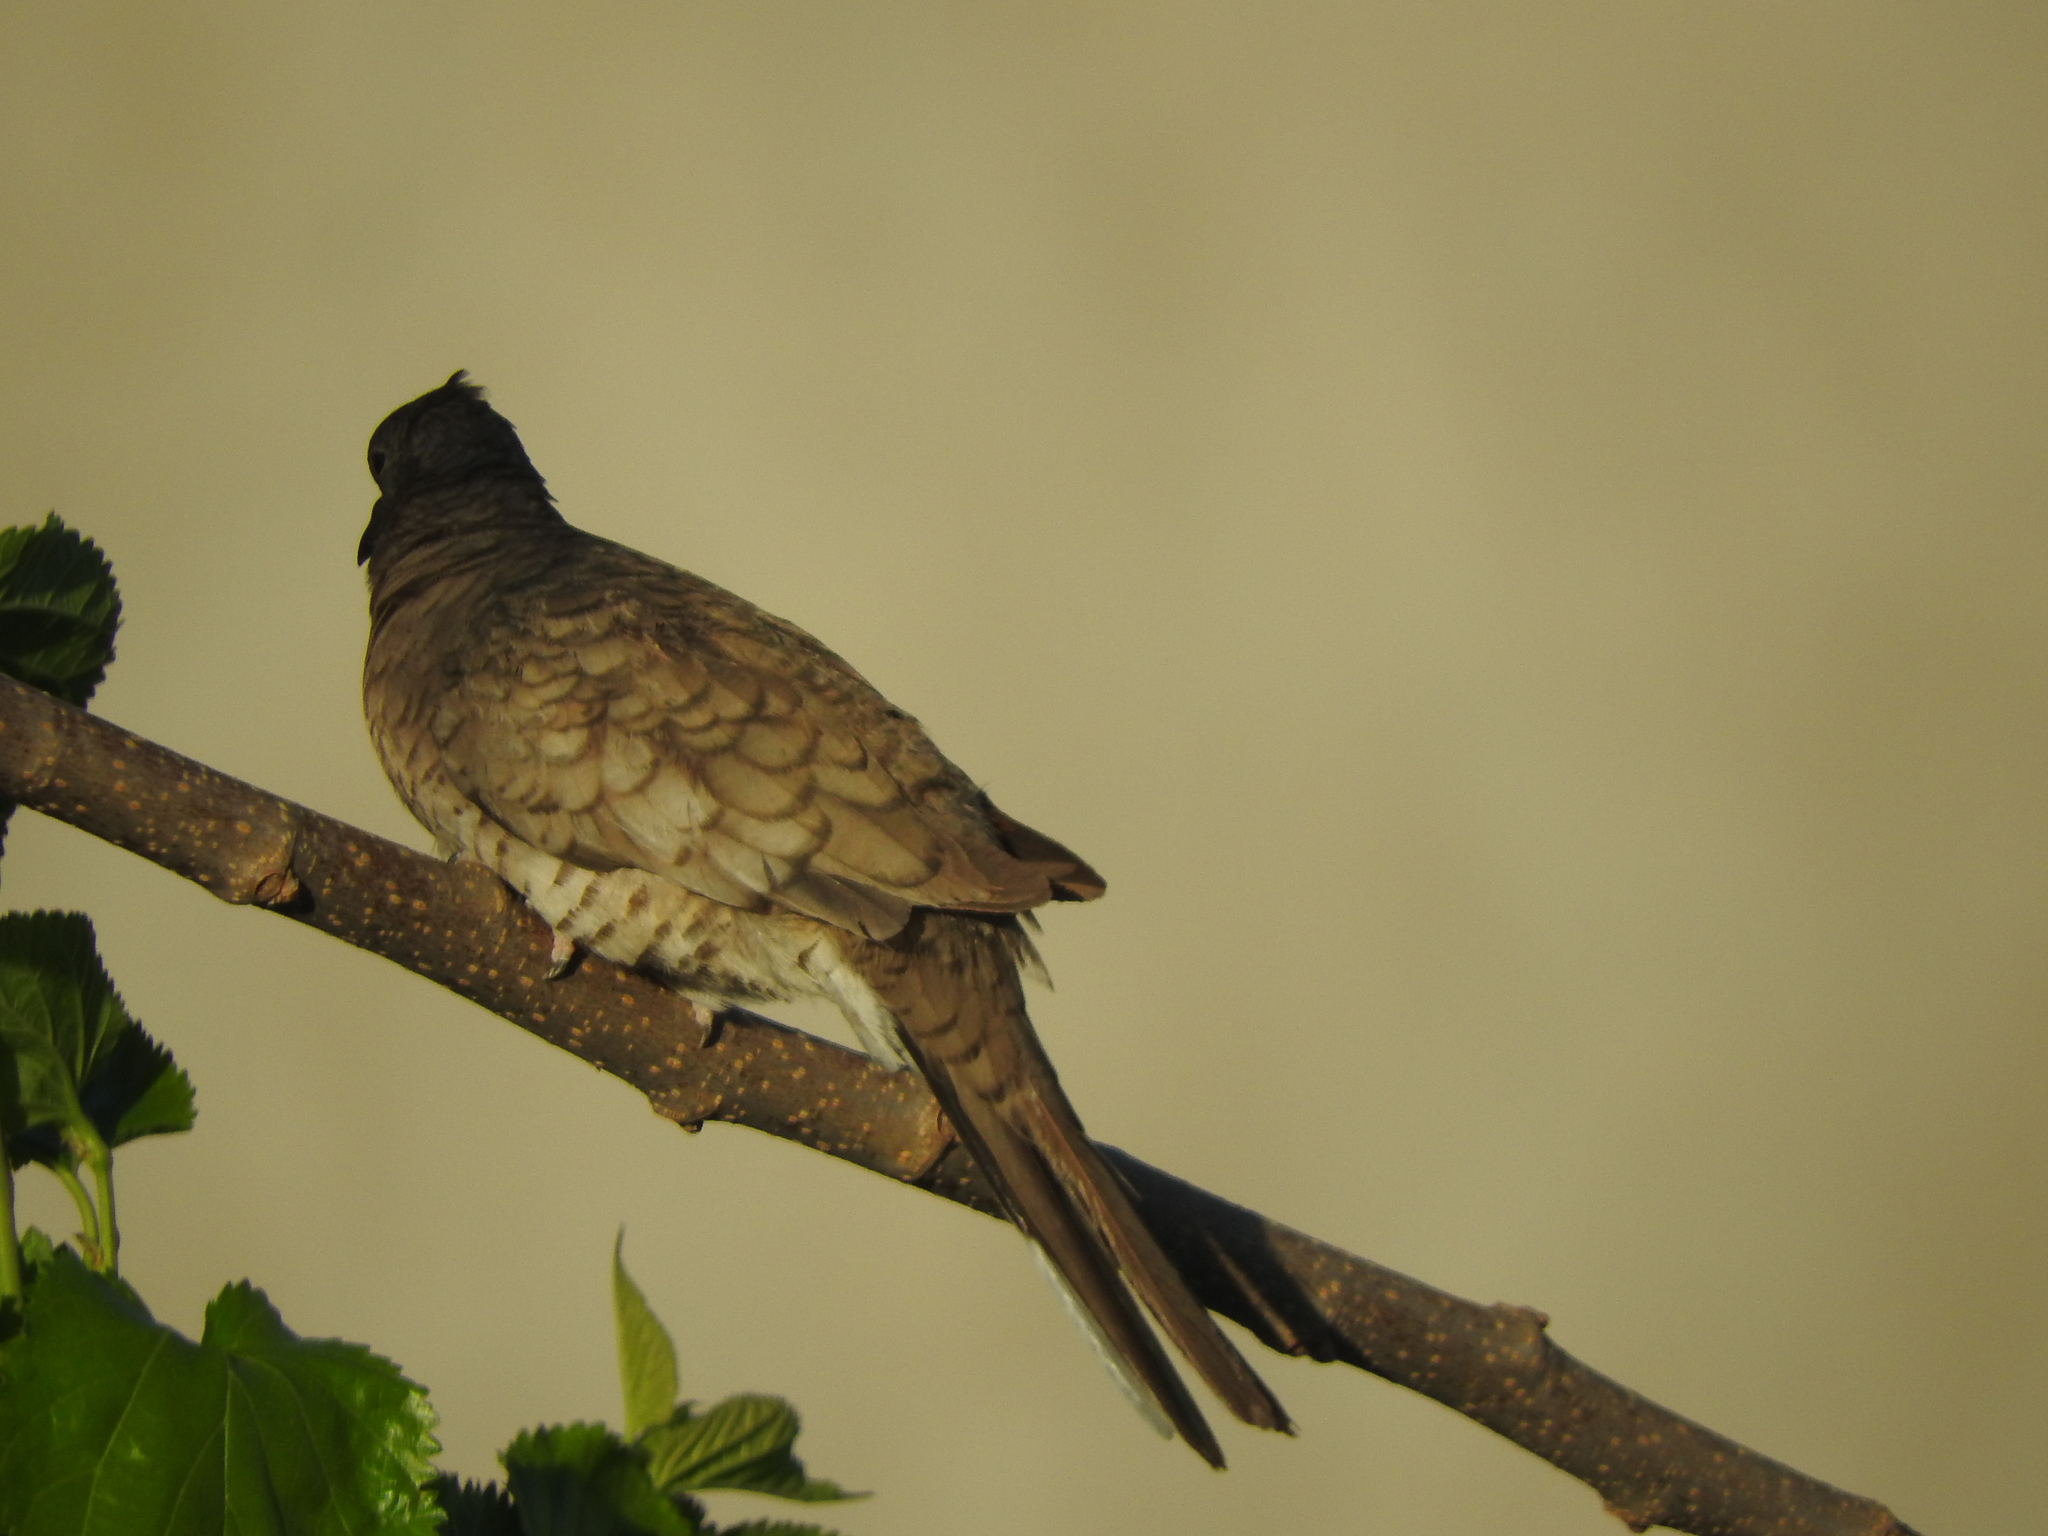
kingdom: Animalia
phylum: Chordata
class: Aves
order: Columbiformes
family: Columbidae
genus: Columbina
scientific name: Columbina inca
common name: Inca dove
